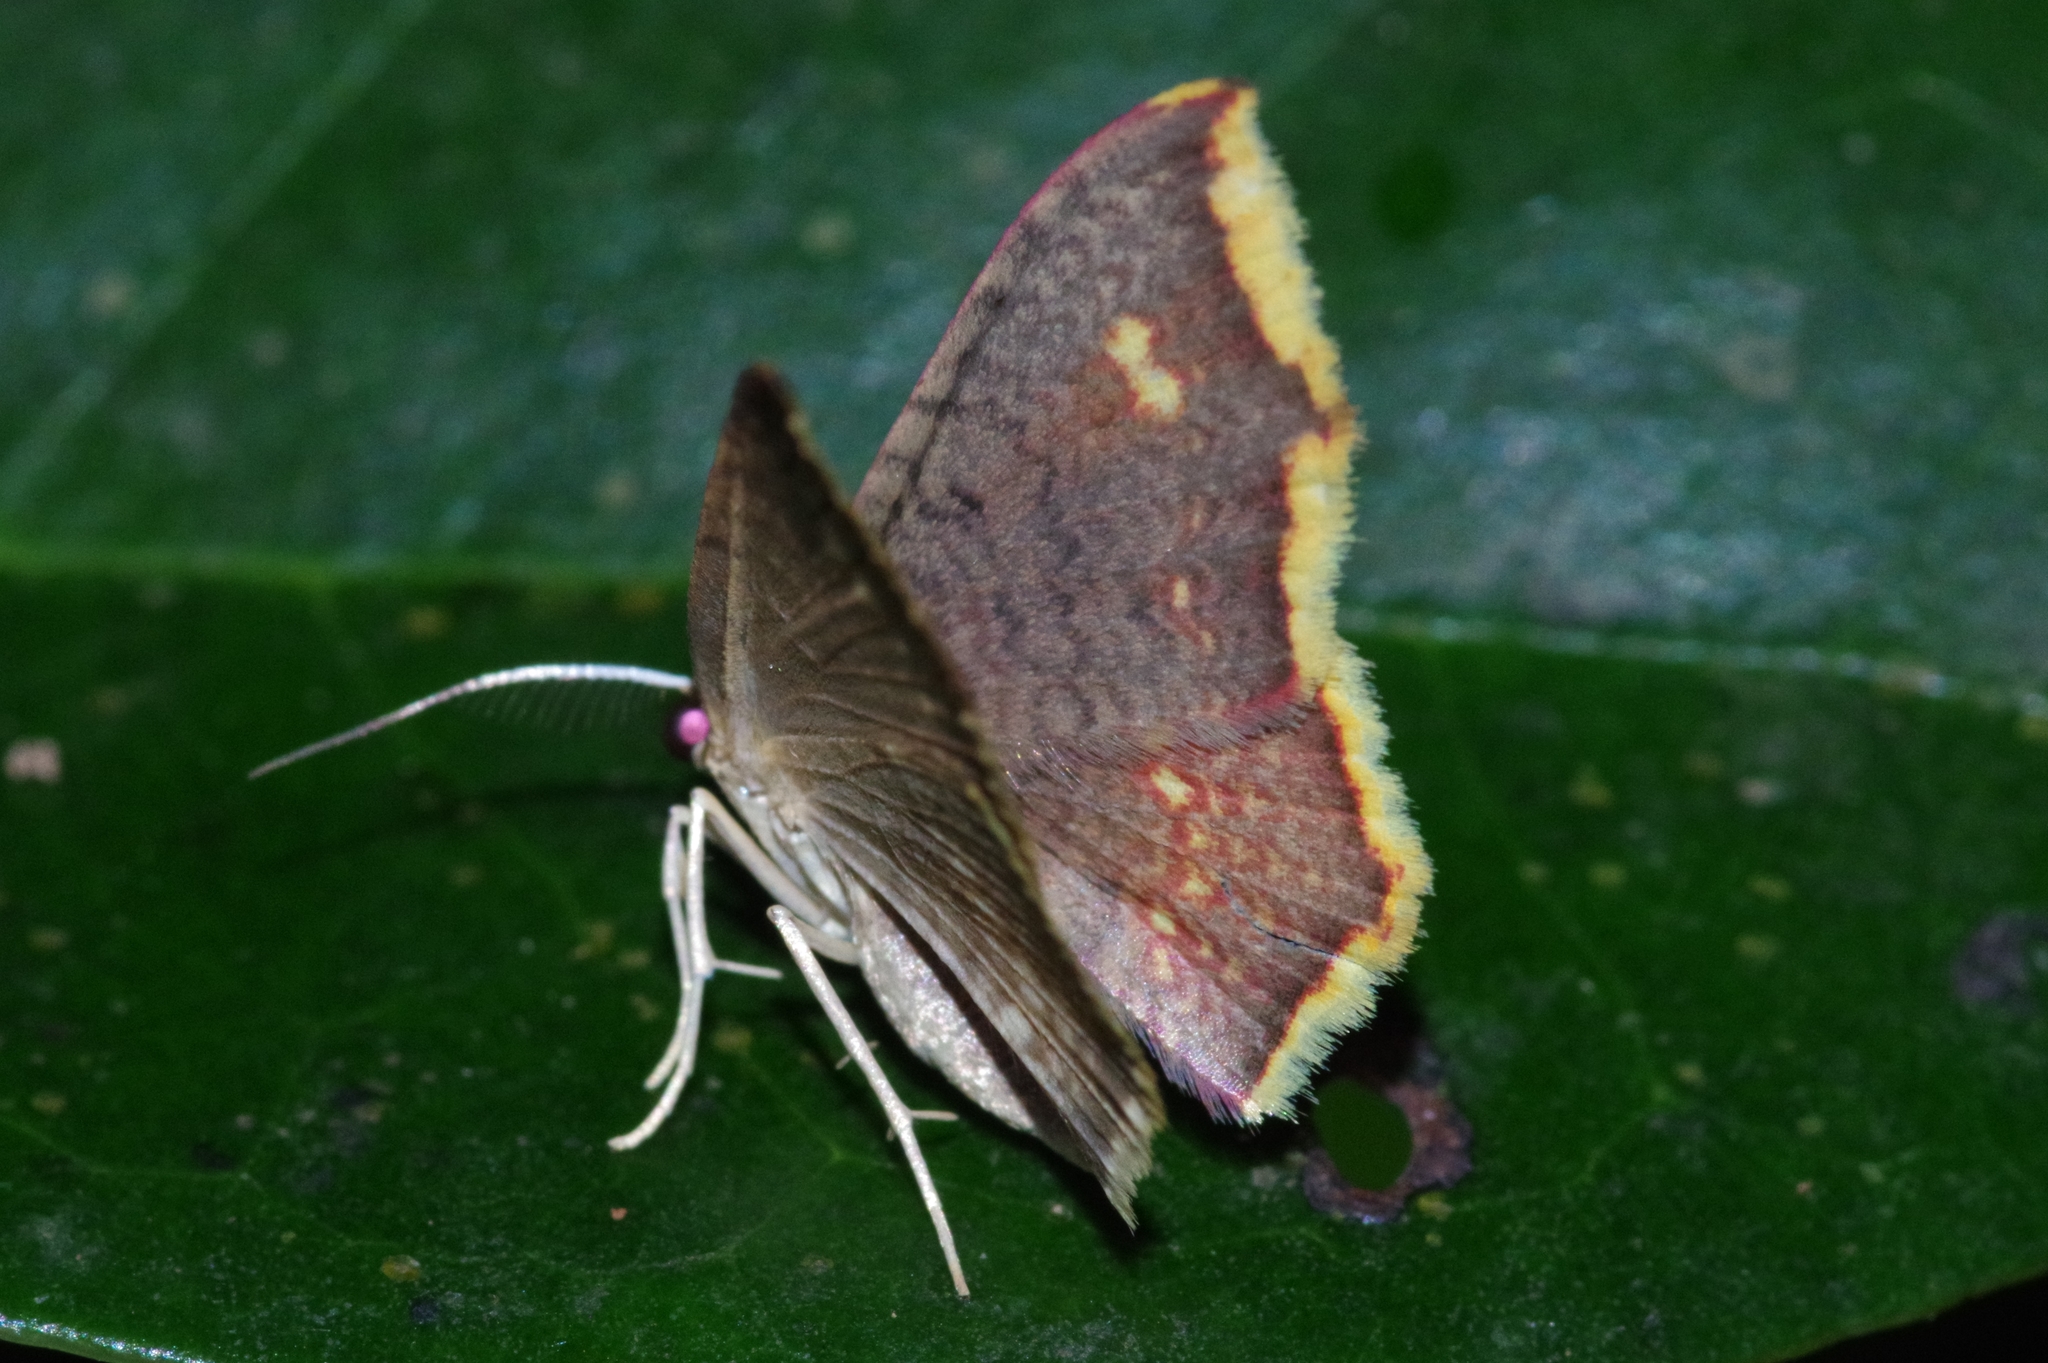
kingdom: Animalia
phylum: Arthropoda
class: Insecta
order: Lepidoptera
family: Geometridae
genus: Eois
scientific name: Eois grataria
